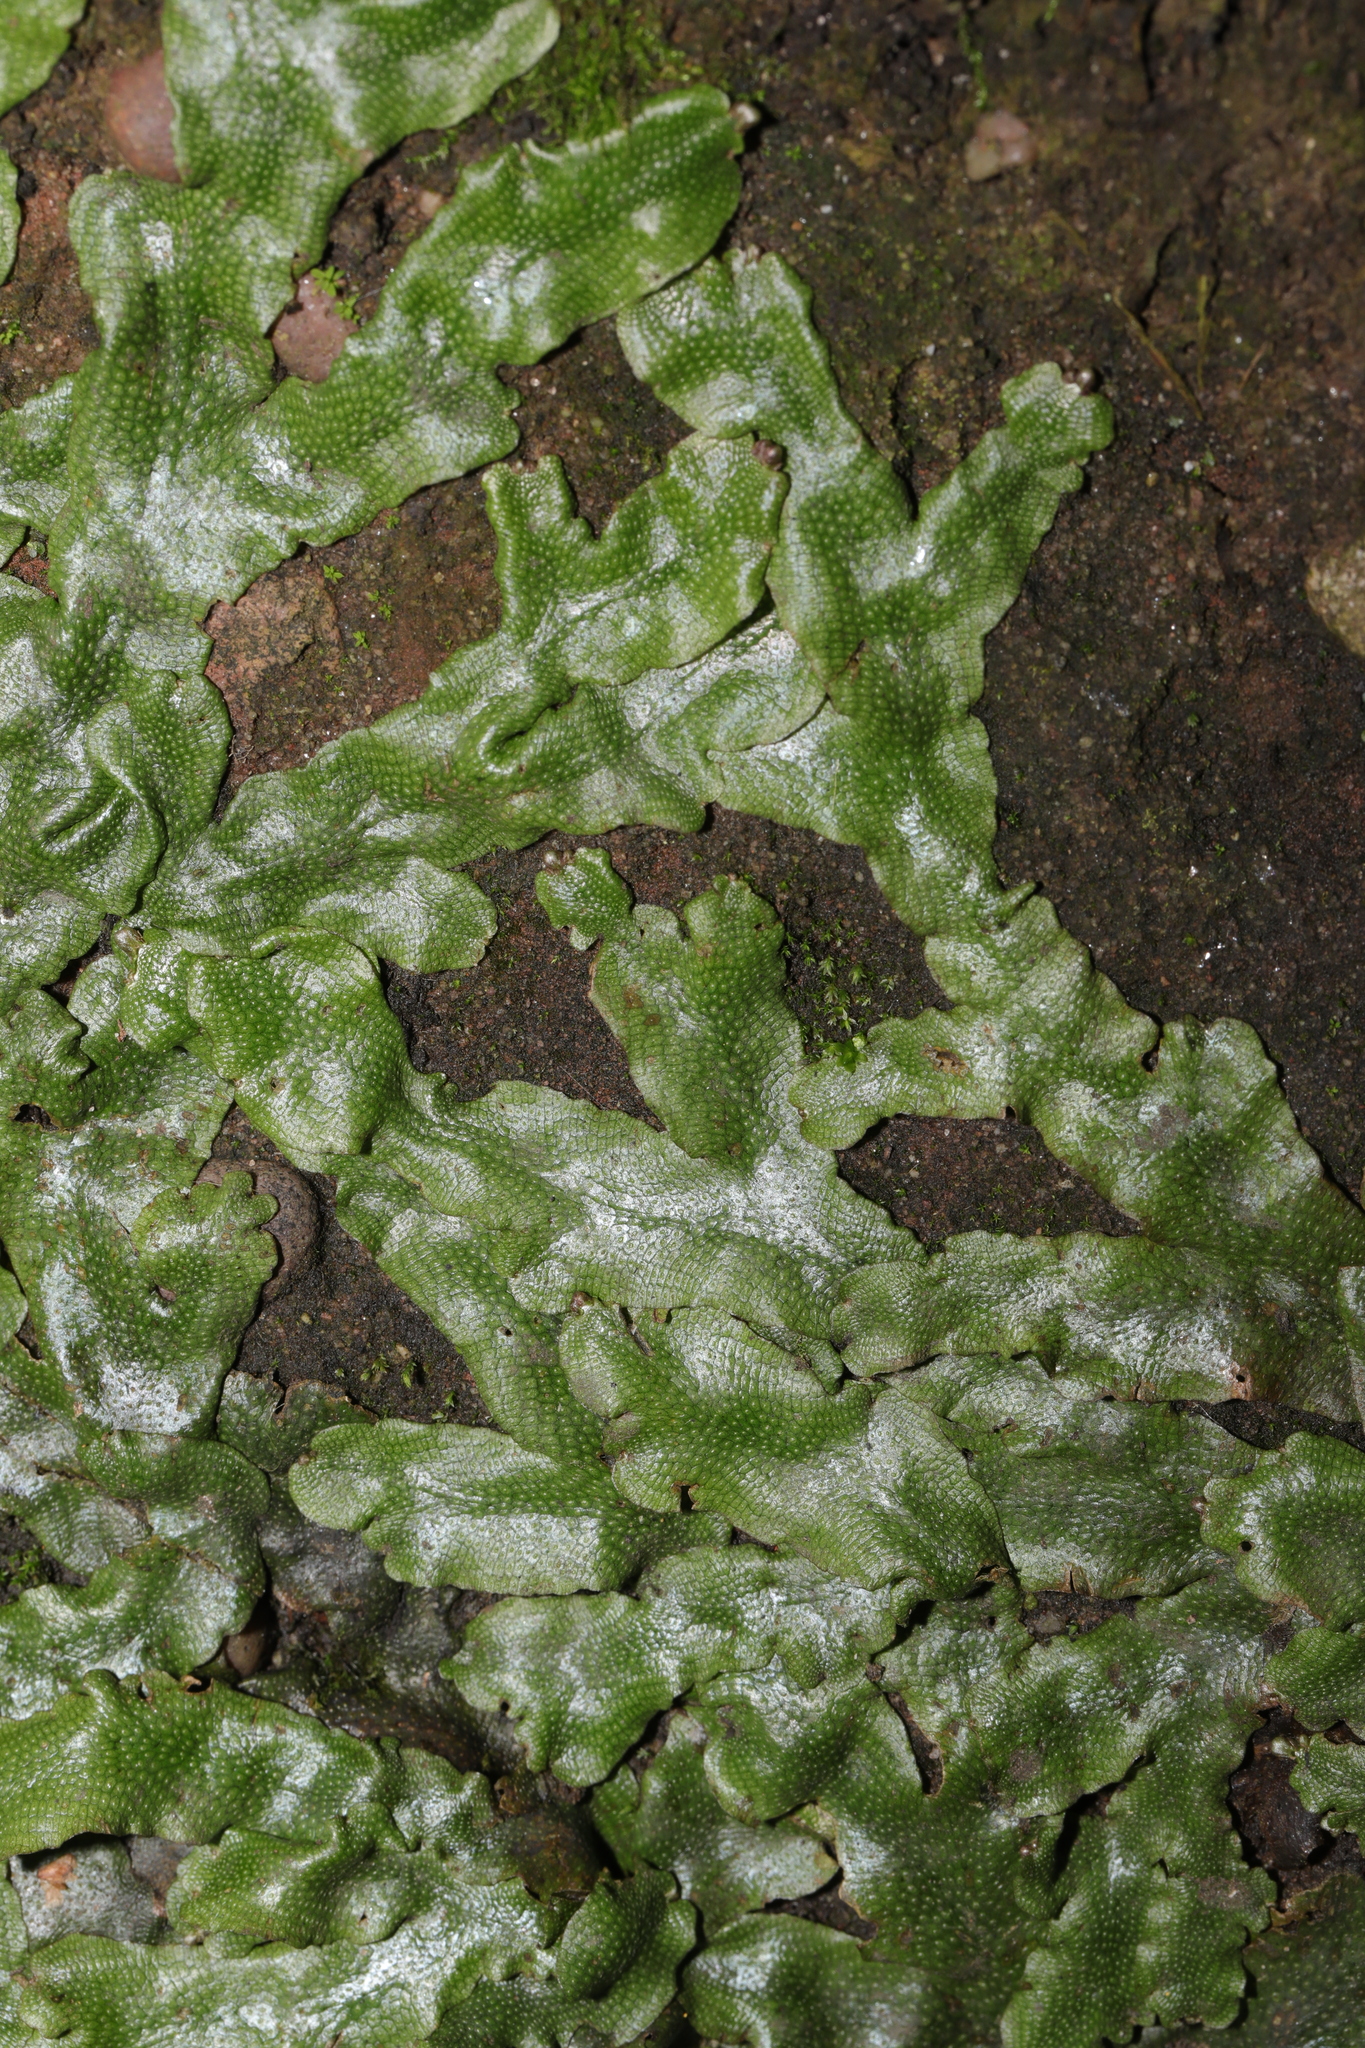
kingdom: Plantae
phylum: Marchantiophyta
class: Marchantiopsida
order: Marchantiales
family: Conocephalaceae
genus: Conocephalum
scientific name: Conocephalum conicum
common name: Great scented liverwort
